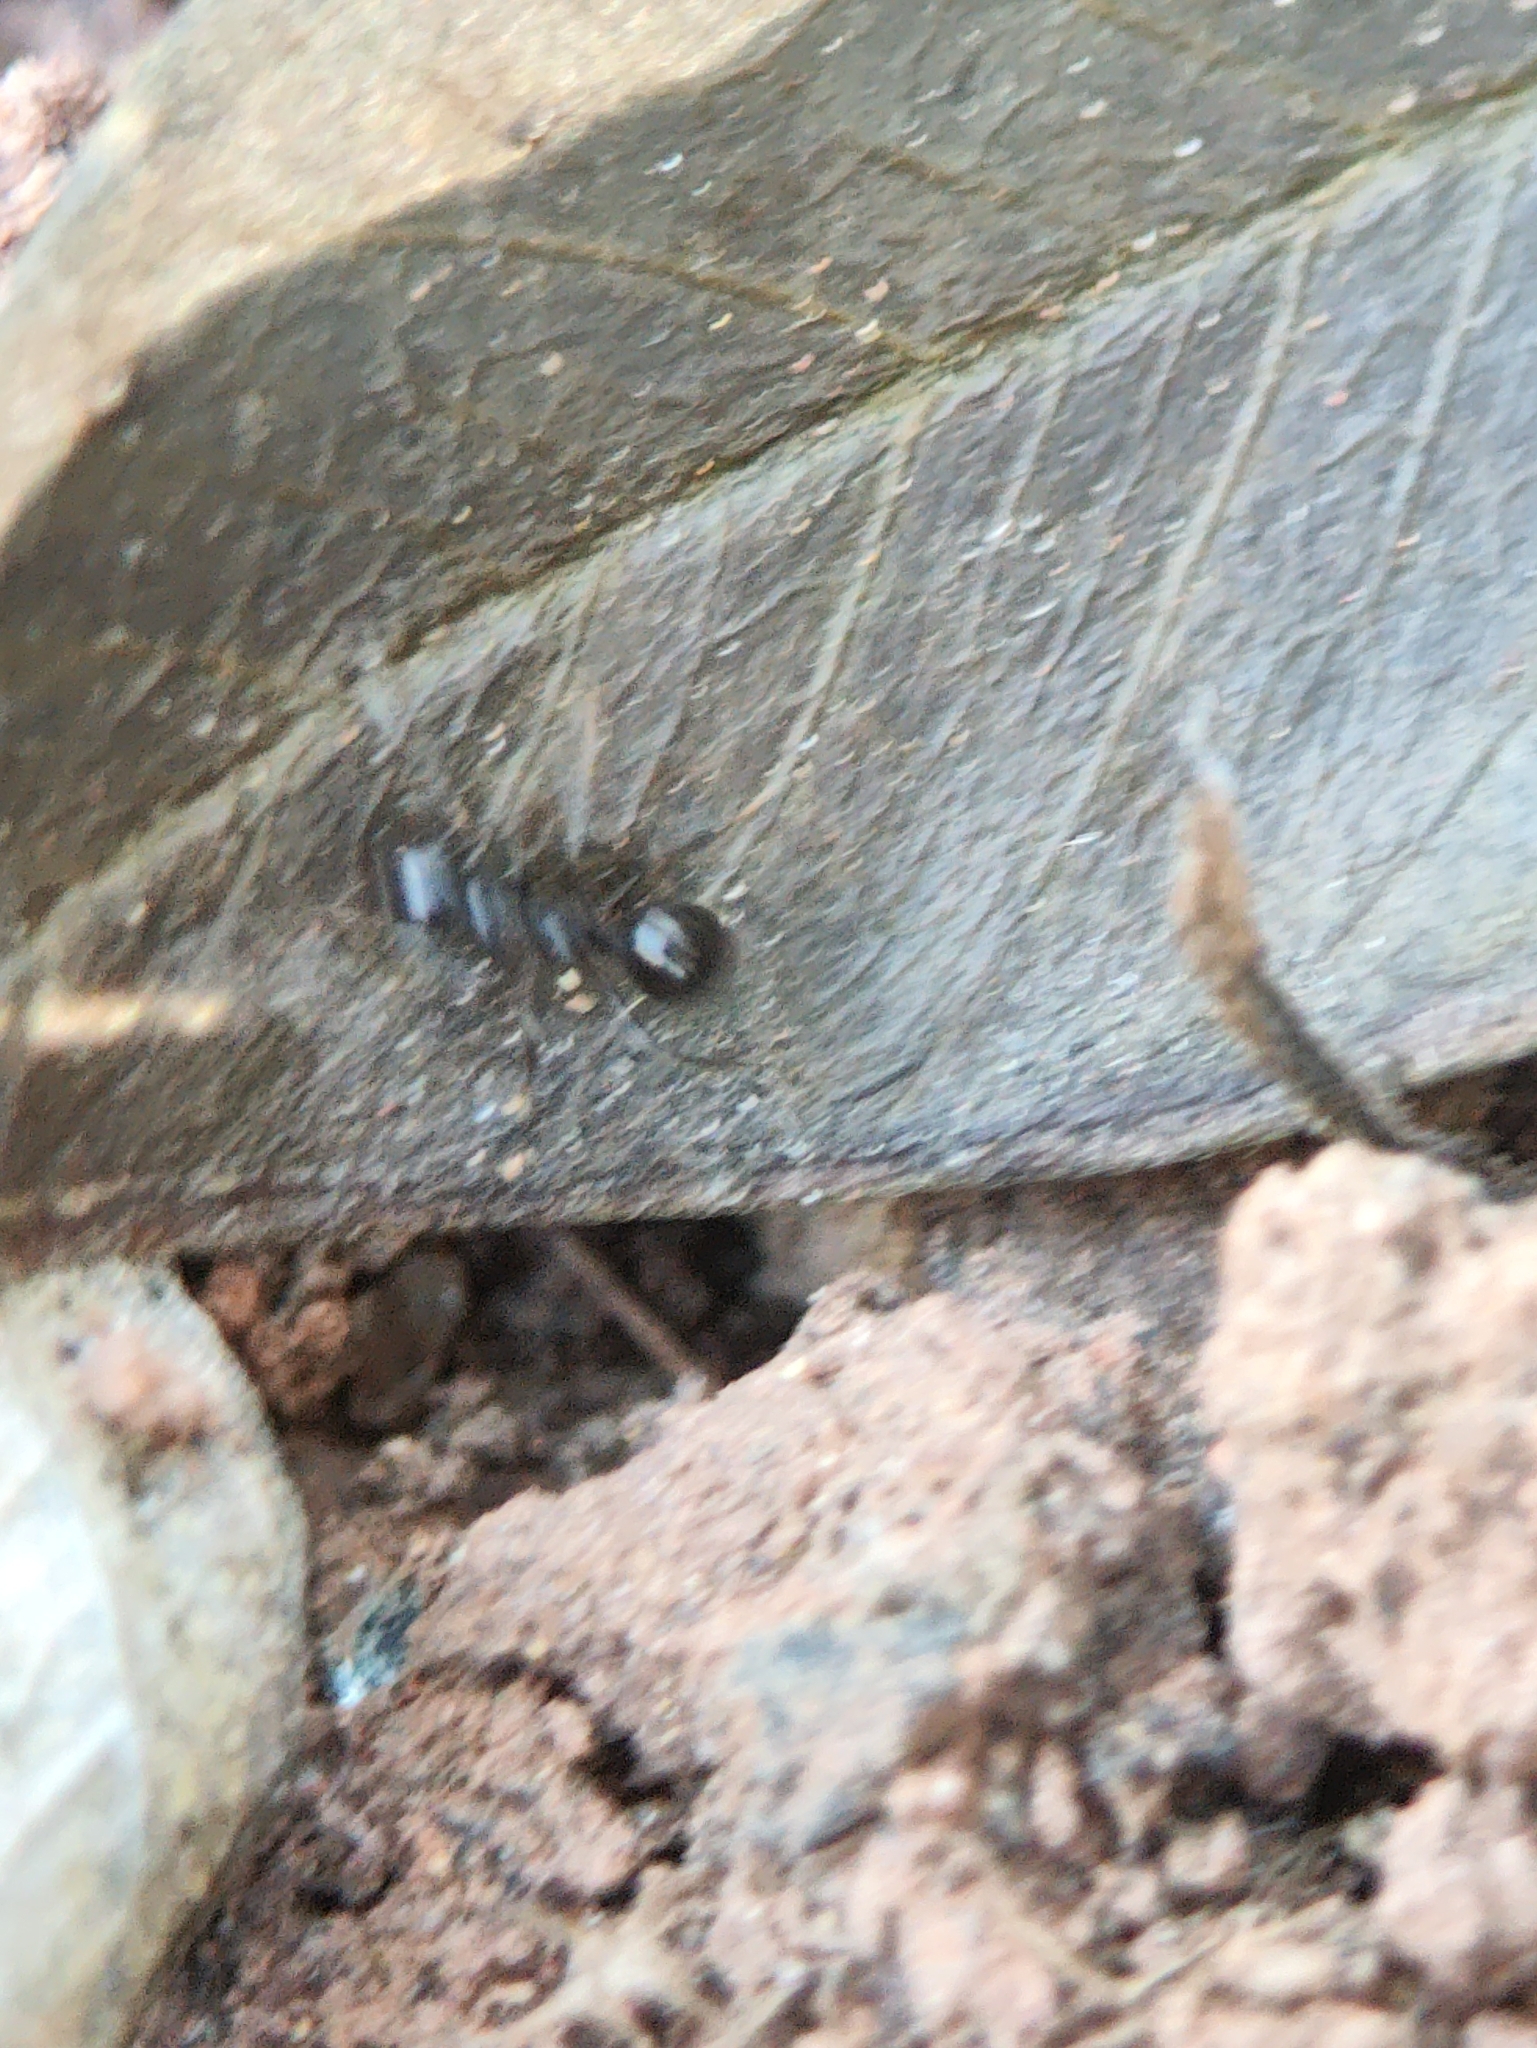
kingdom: Animalia
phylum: Arthropoda
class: Insecta
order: Hymenoptera
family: Formicidae
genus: Lepisiota
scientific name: Lepisiota
